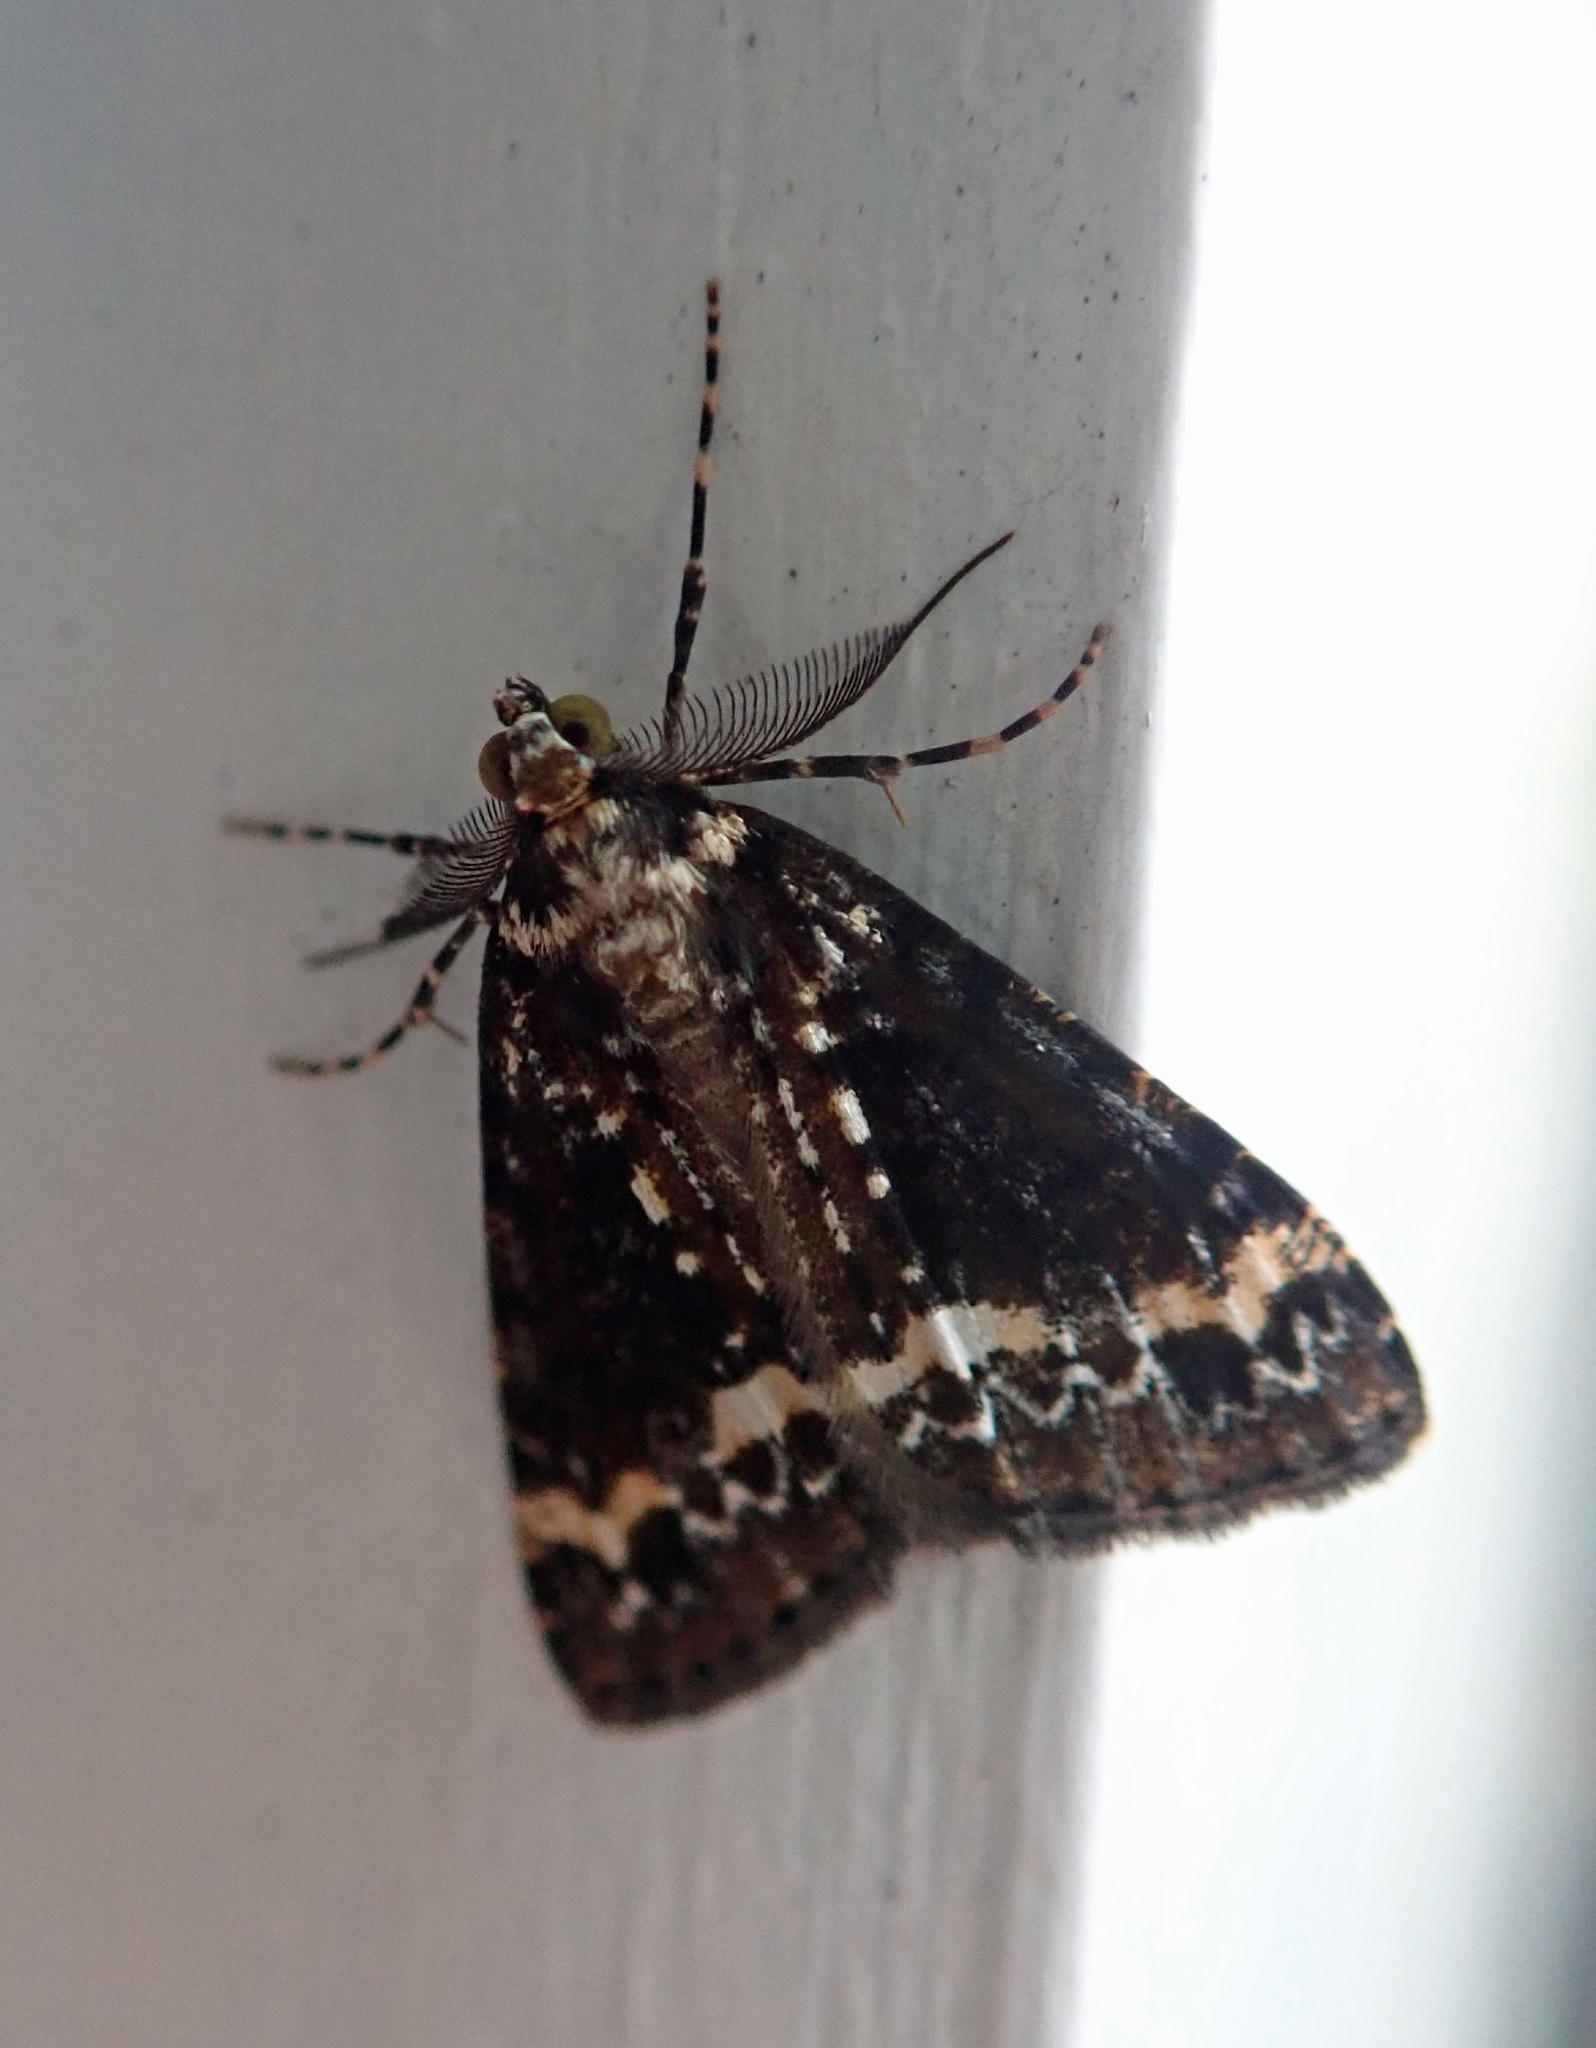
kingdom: Animalia
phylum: Arthropoda
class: Insecta
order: Lepidoptera
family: Geometridae
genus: Pseudocoremia
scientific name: Pseudocoremia leucelaea
